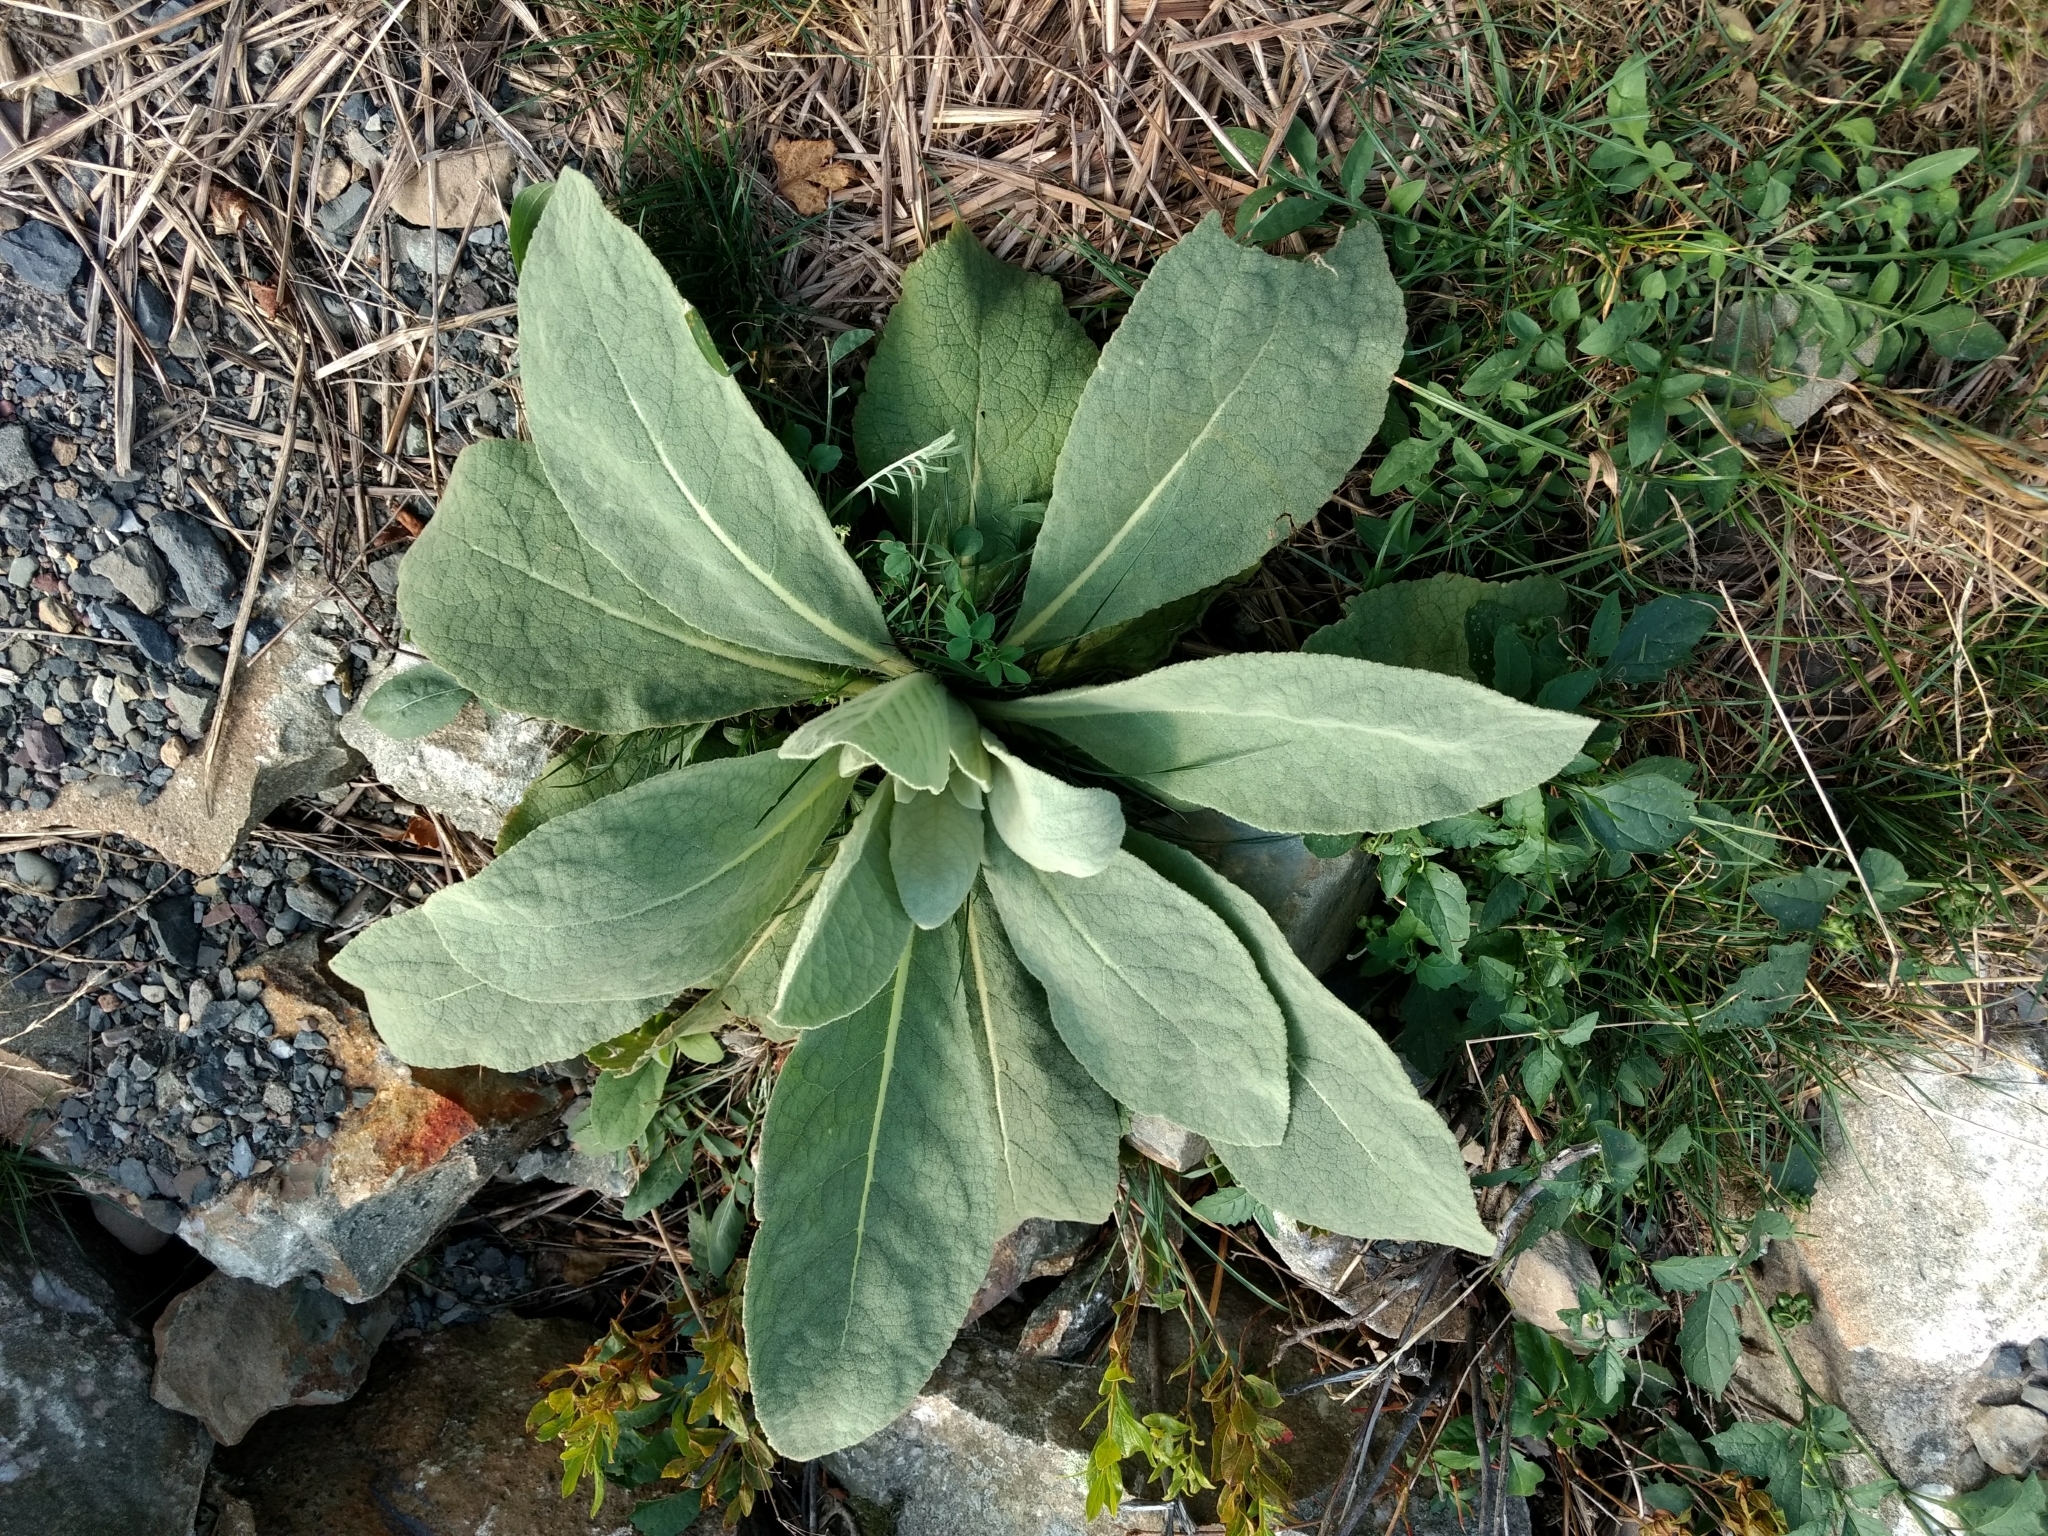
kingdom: Plantae
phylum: Tracheophyta
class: Magnoliopsida
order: Lamiales
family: Scrophulariaceae
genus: Verbascum
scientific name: Verbascum thapsus
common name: Common mullein
